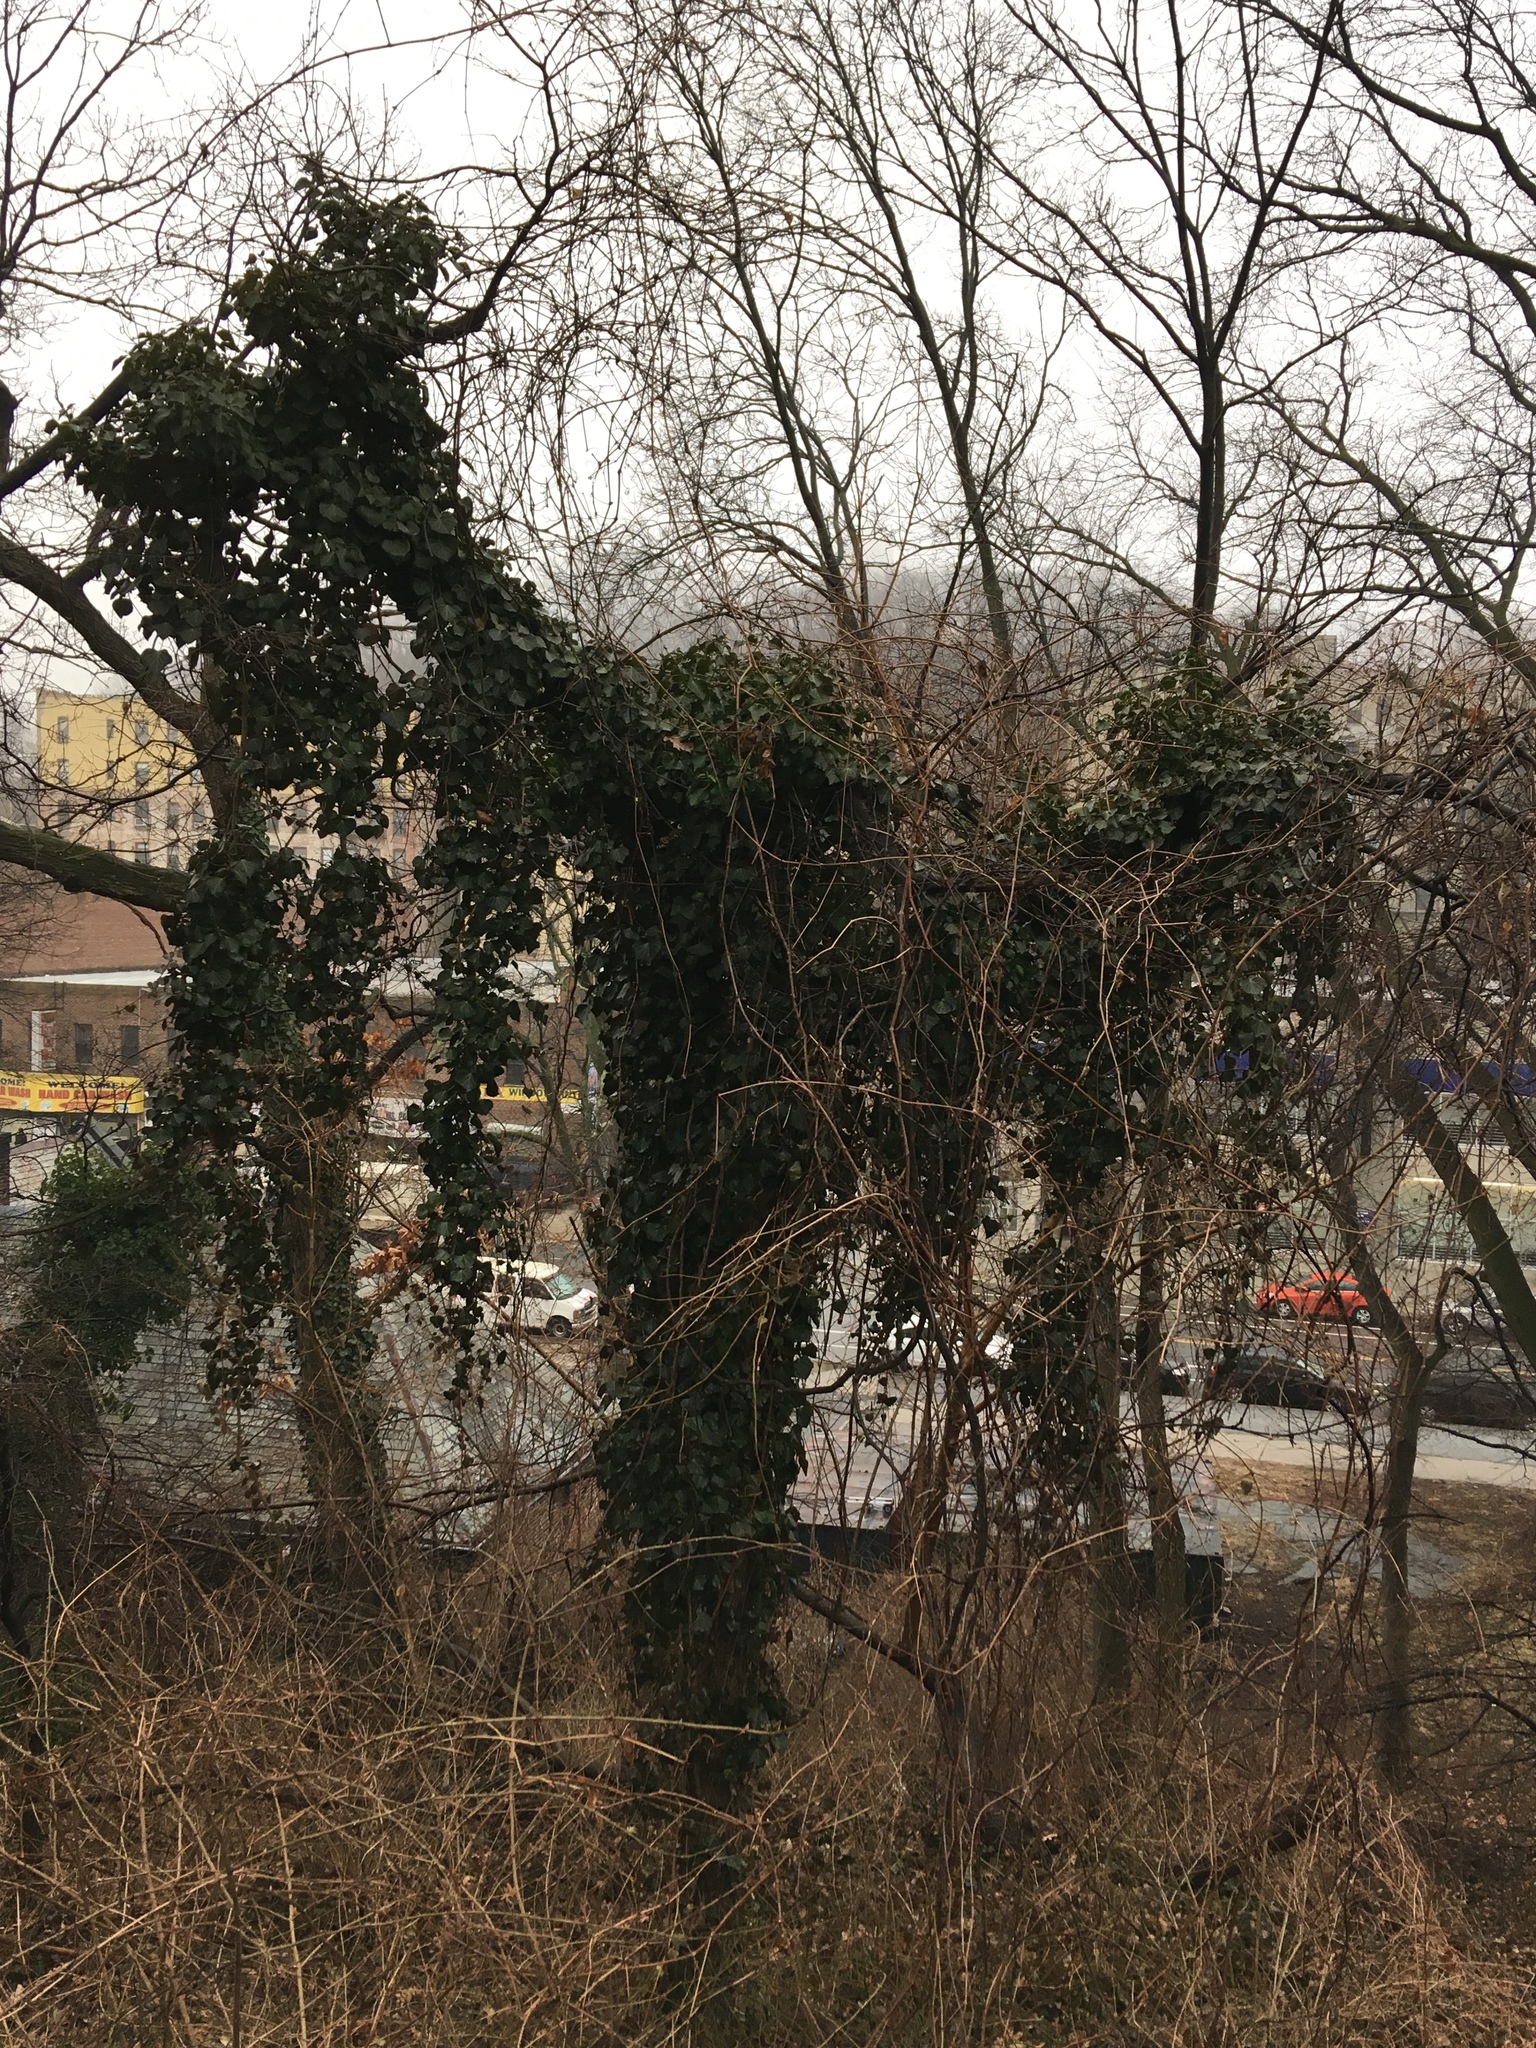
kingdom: Plantae
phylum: Tracheophyta
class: Magnoliopsida
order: Apiales
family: Araliaceae
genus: Hedera
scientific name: Hedera helix
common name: Ivy
